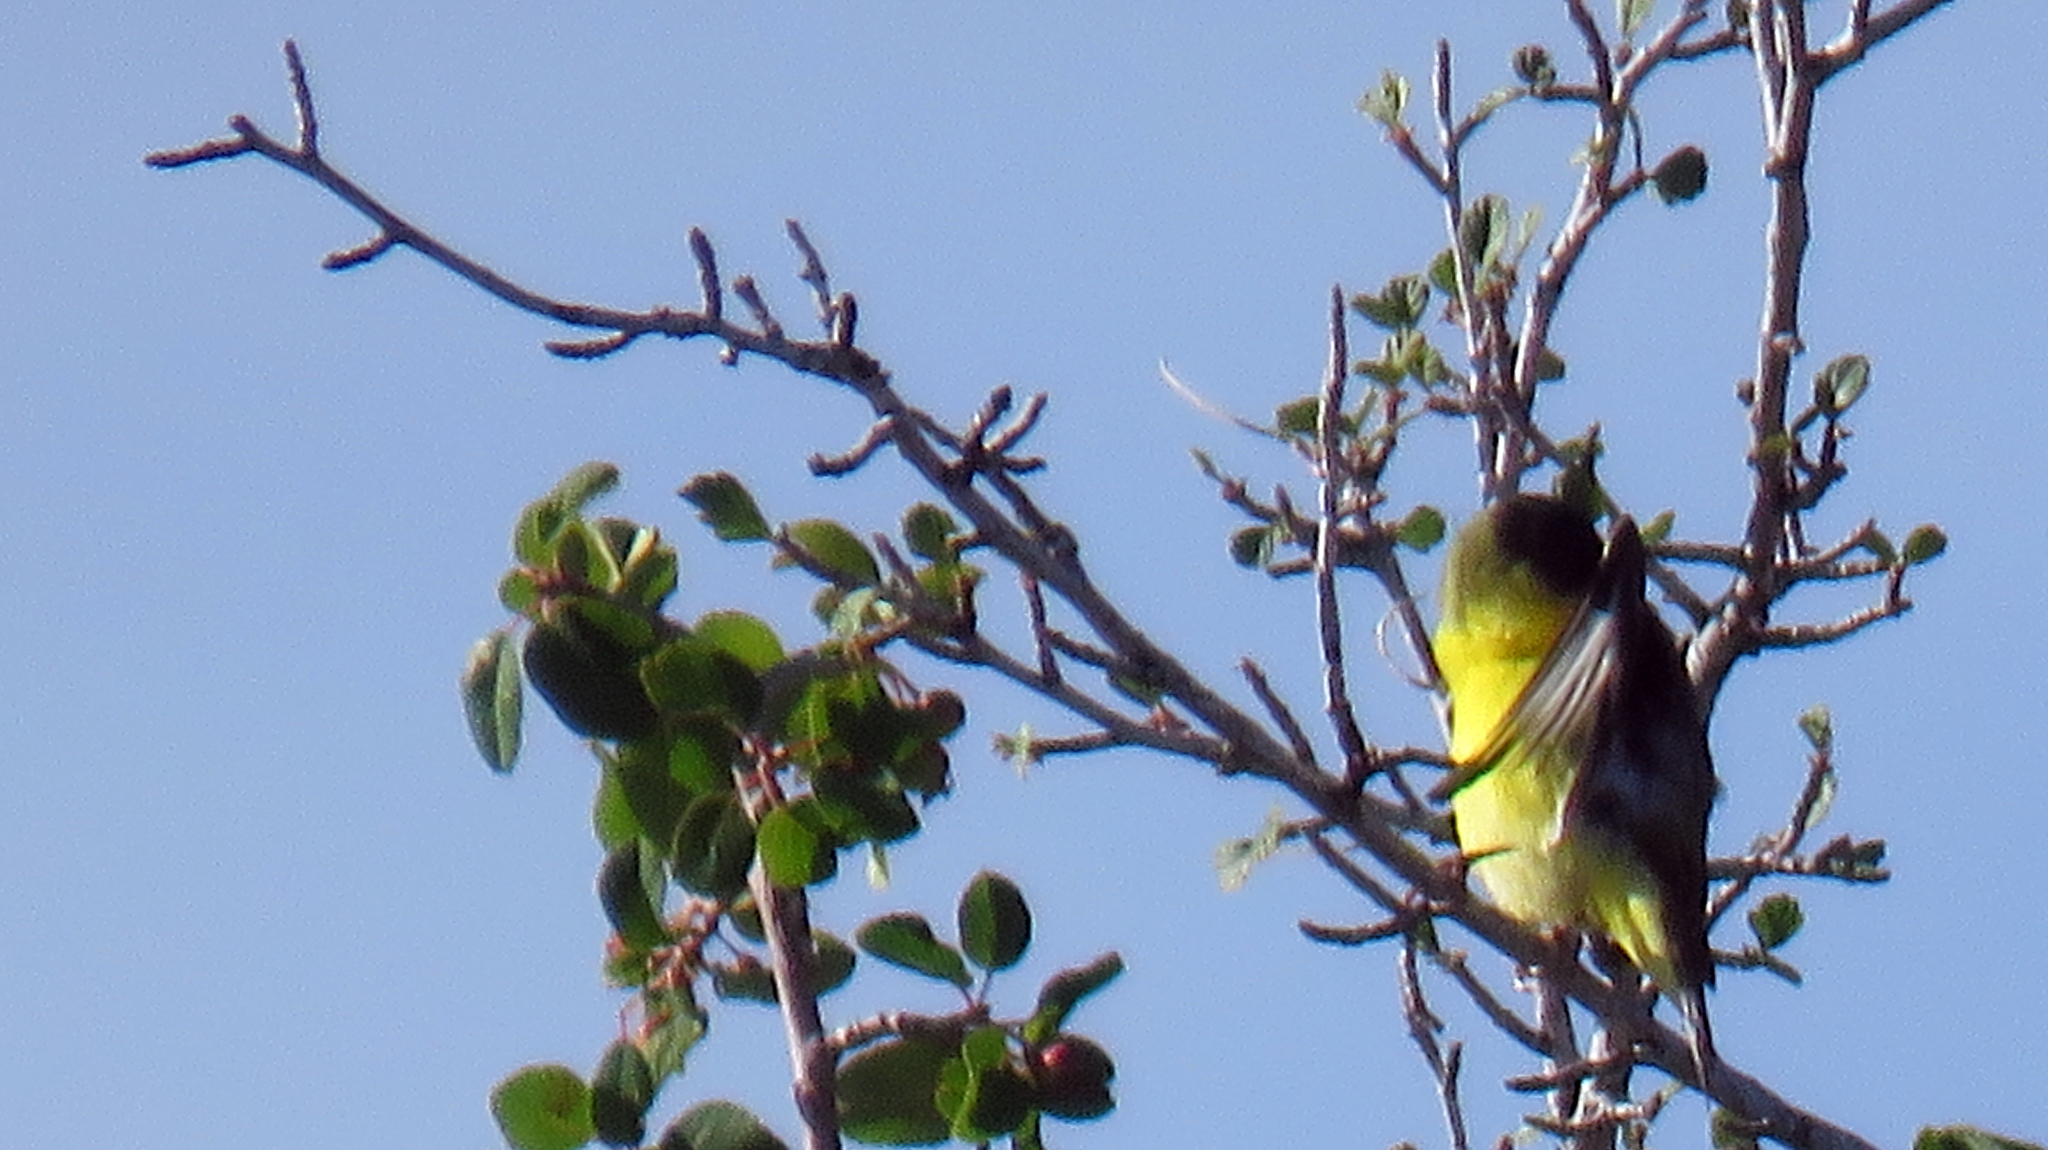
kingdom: Animalia
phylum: Chordata
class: Aves
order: Passeriformes
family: Fringillidae
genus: Spinus
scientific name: Spinus psaltria
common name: Lesser goldfinch
